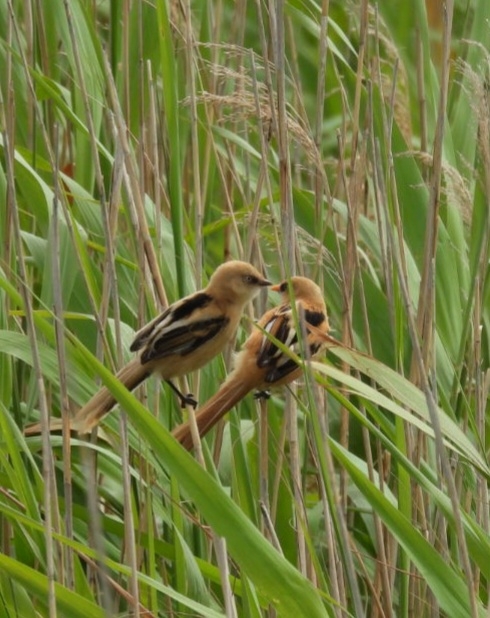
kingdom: Animalia
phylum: Chordata
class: Aves
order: Passeriformes
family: Panuridae
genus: Panurus
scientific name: Panurus biarmicus
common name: Bearded reedling
